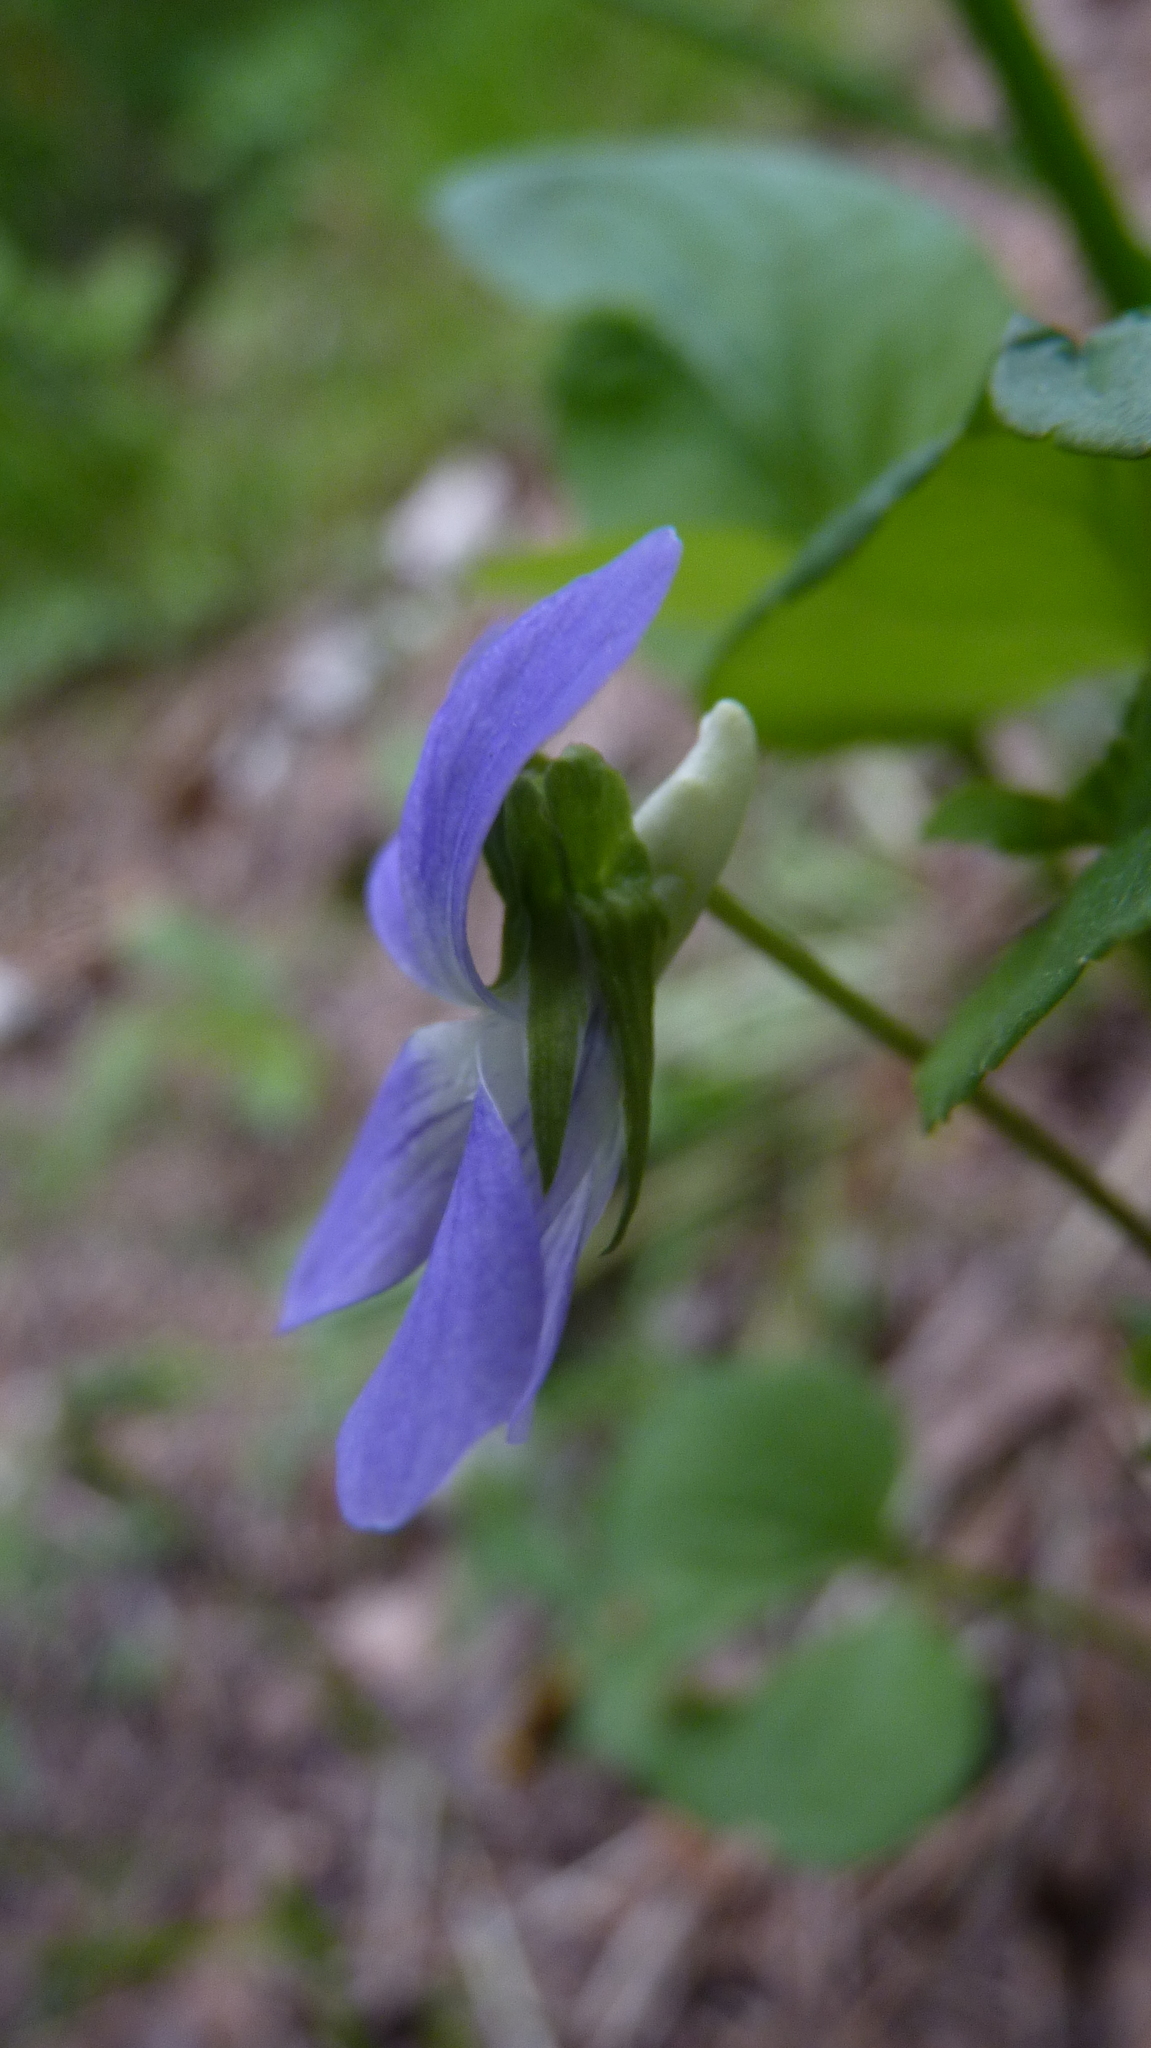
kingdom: Plantae
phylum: Tracheophyta
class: Magnoliopsida
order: Malpighiales
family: Violaceae
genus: Viola
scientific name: Viola
